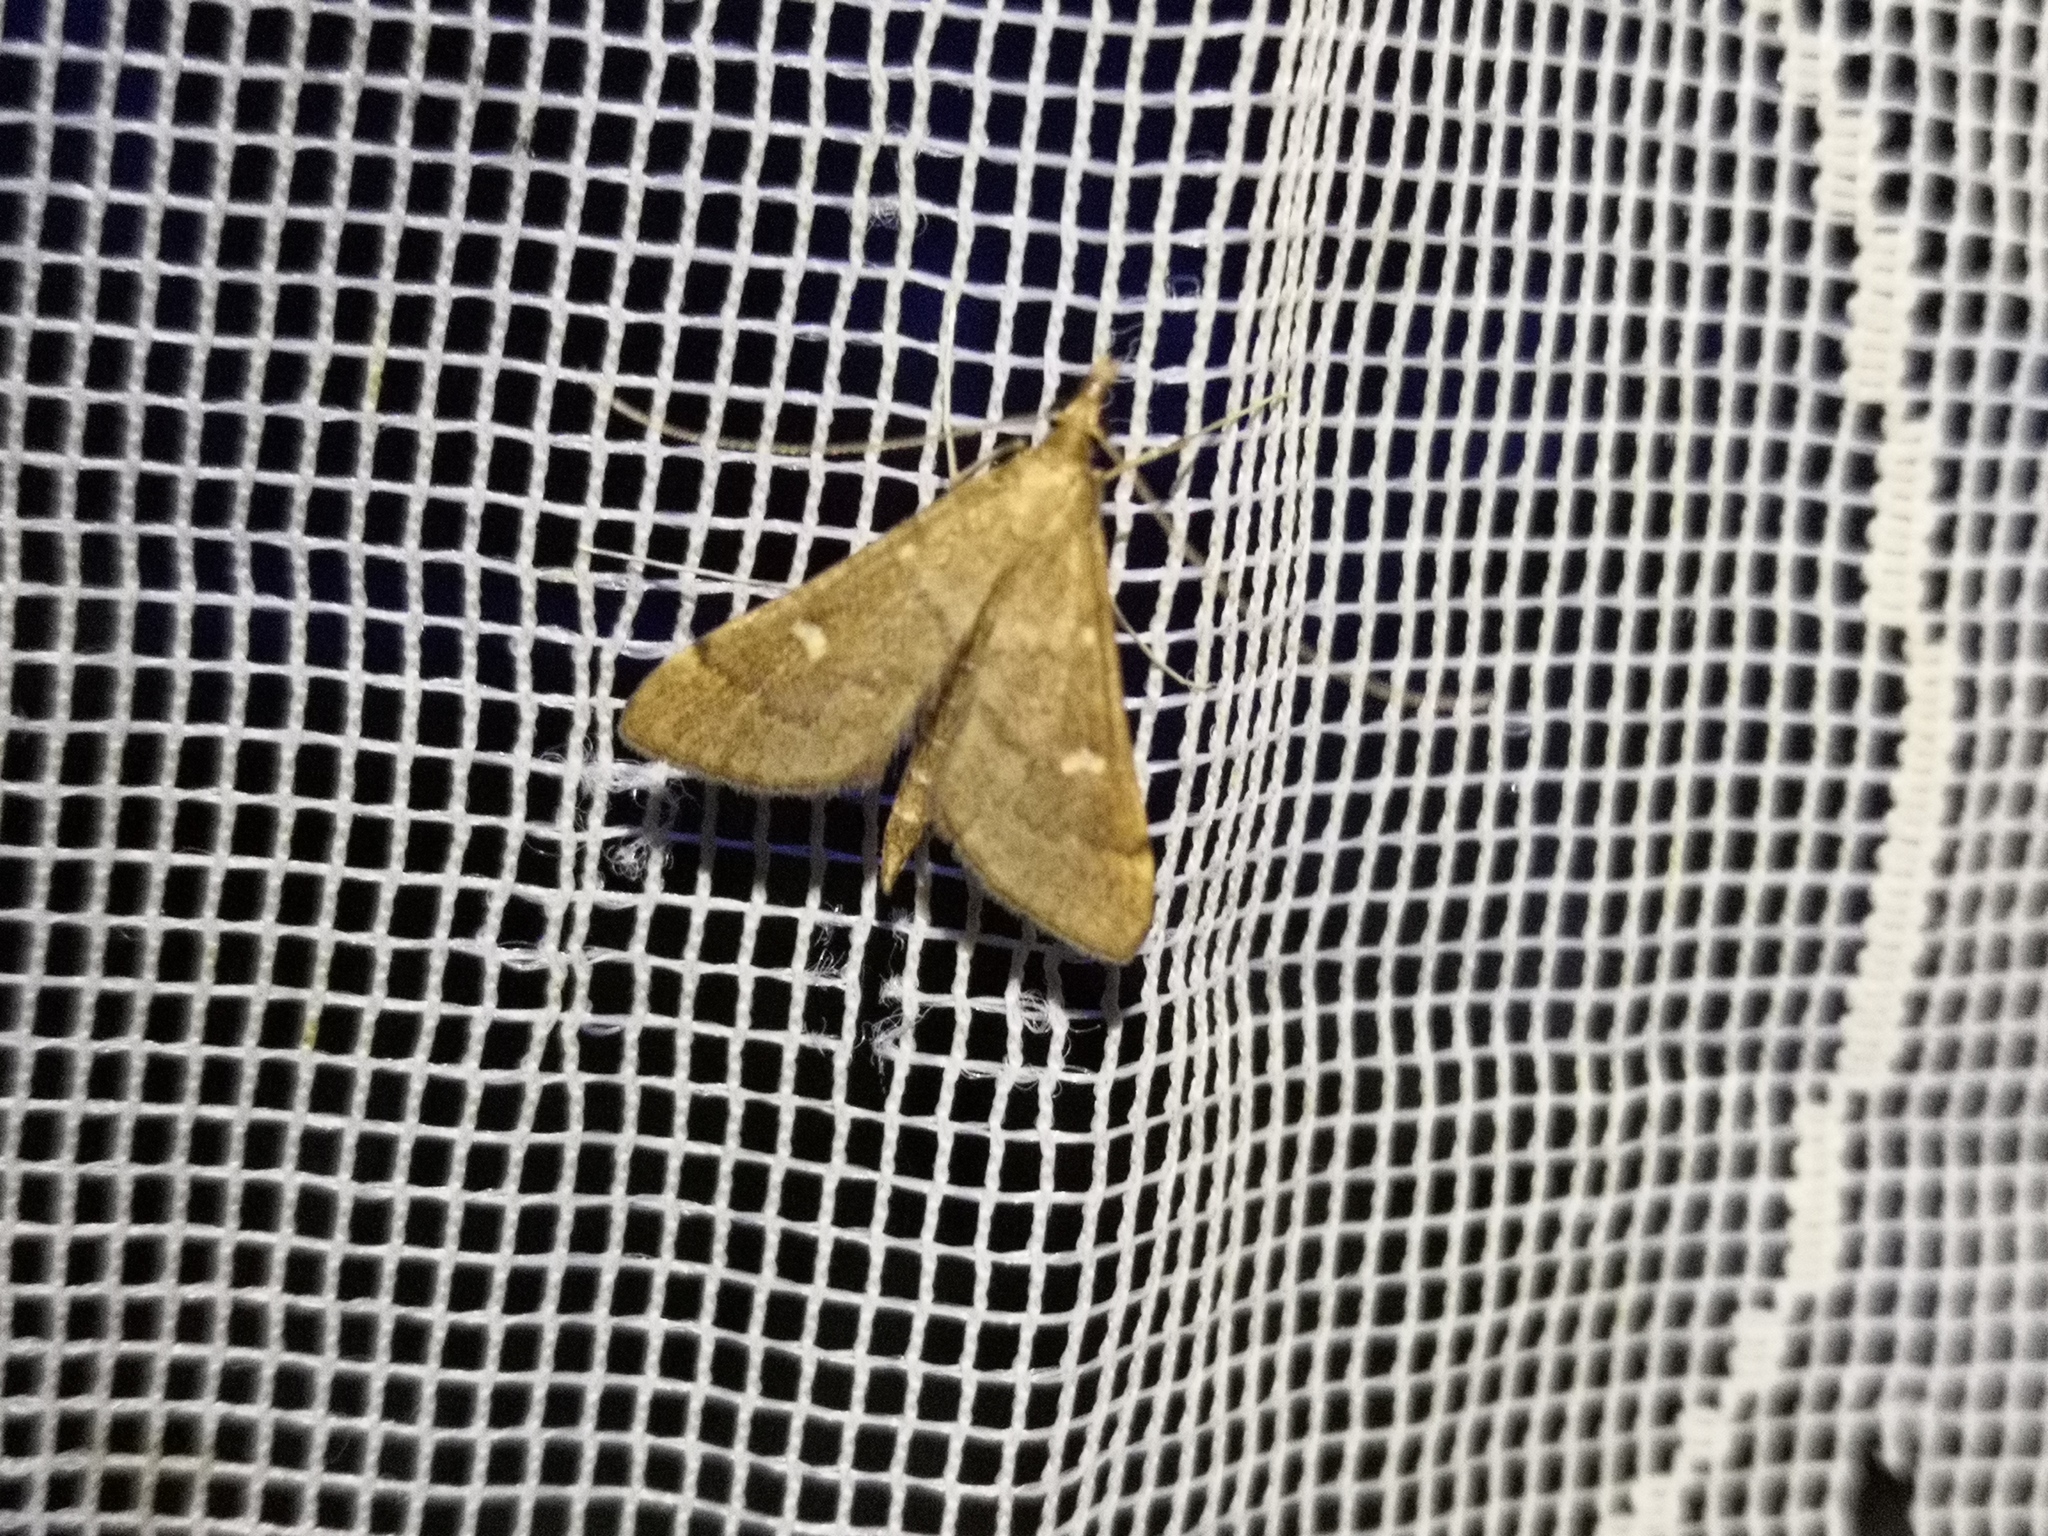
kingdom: Animalia
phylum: Arthropoda
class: Insecta
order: Lepidoptera
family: Crambidae
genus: Stenia
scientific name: Stenia Dolicharthria punctalis
